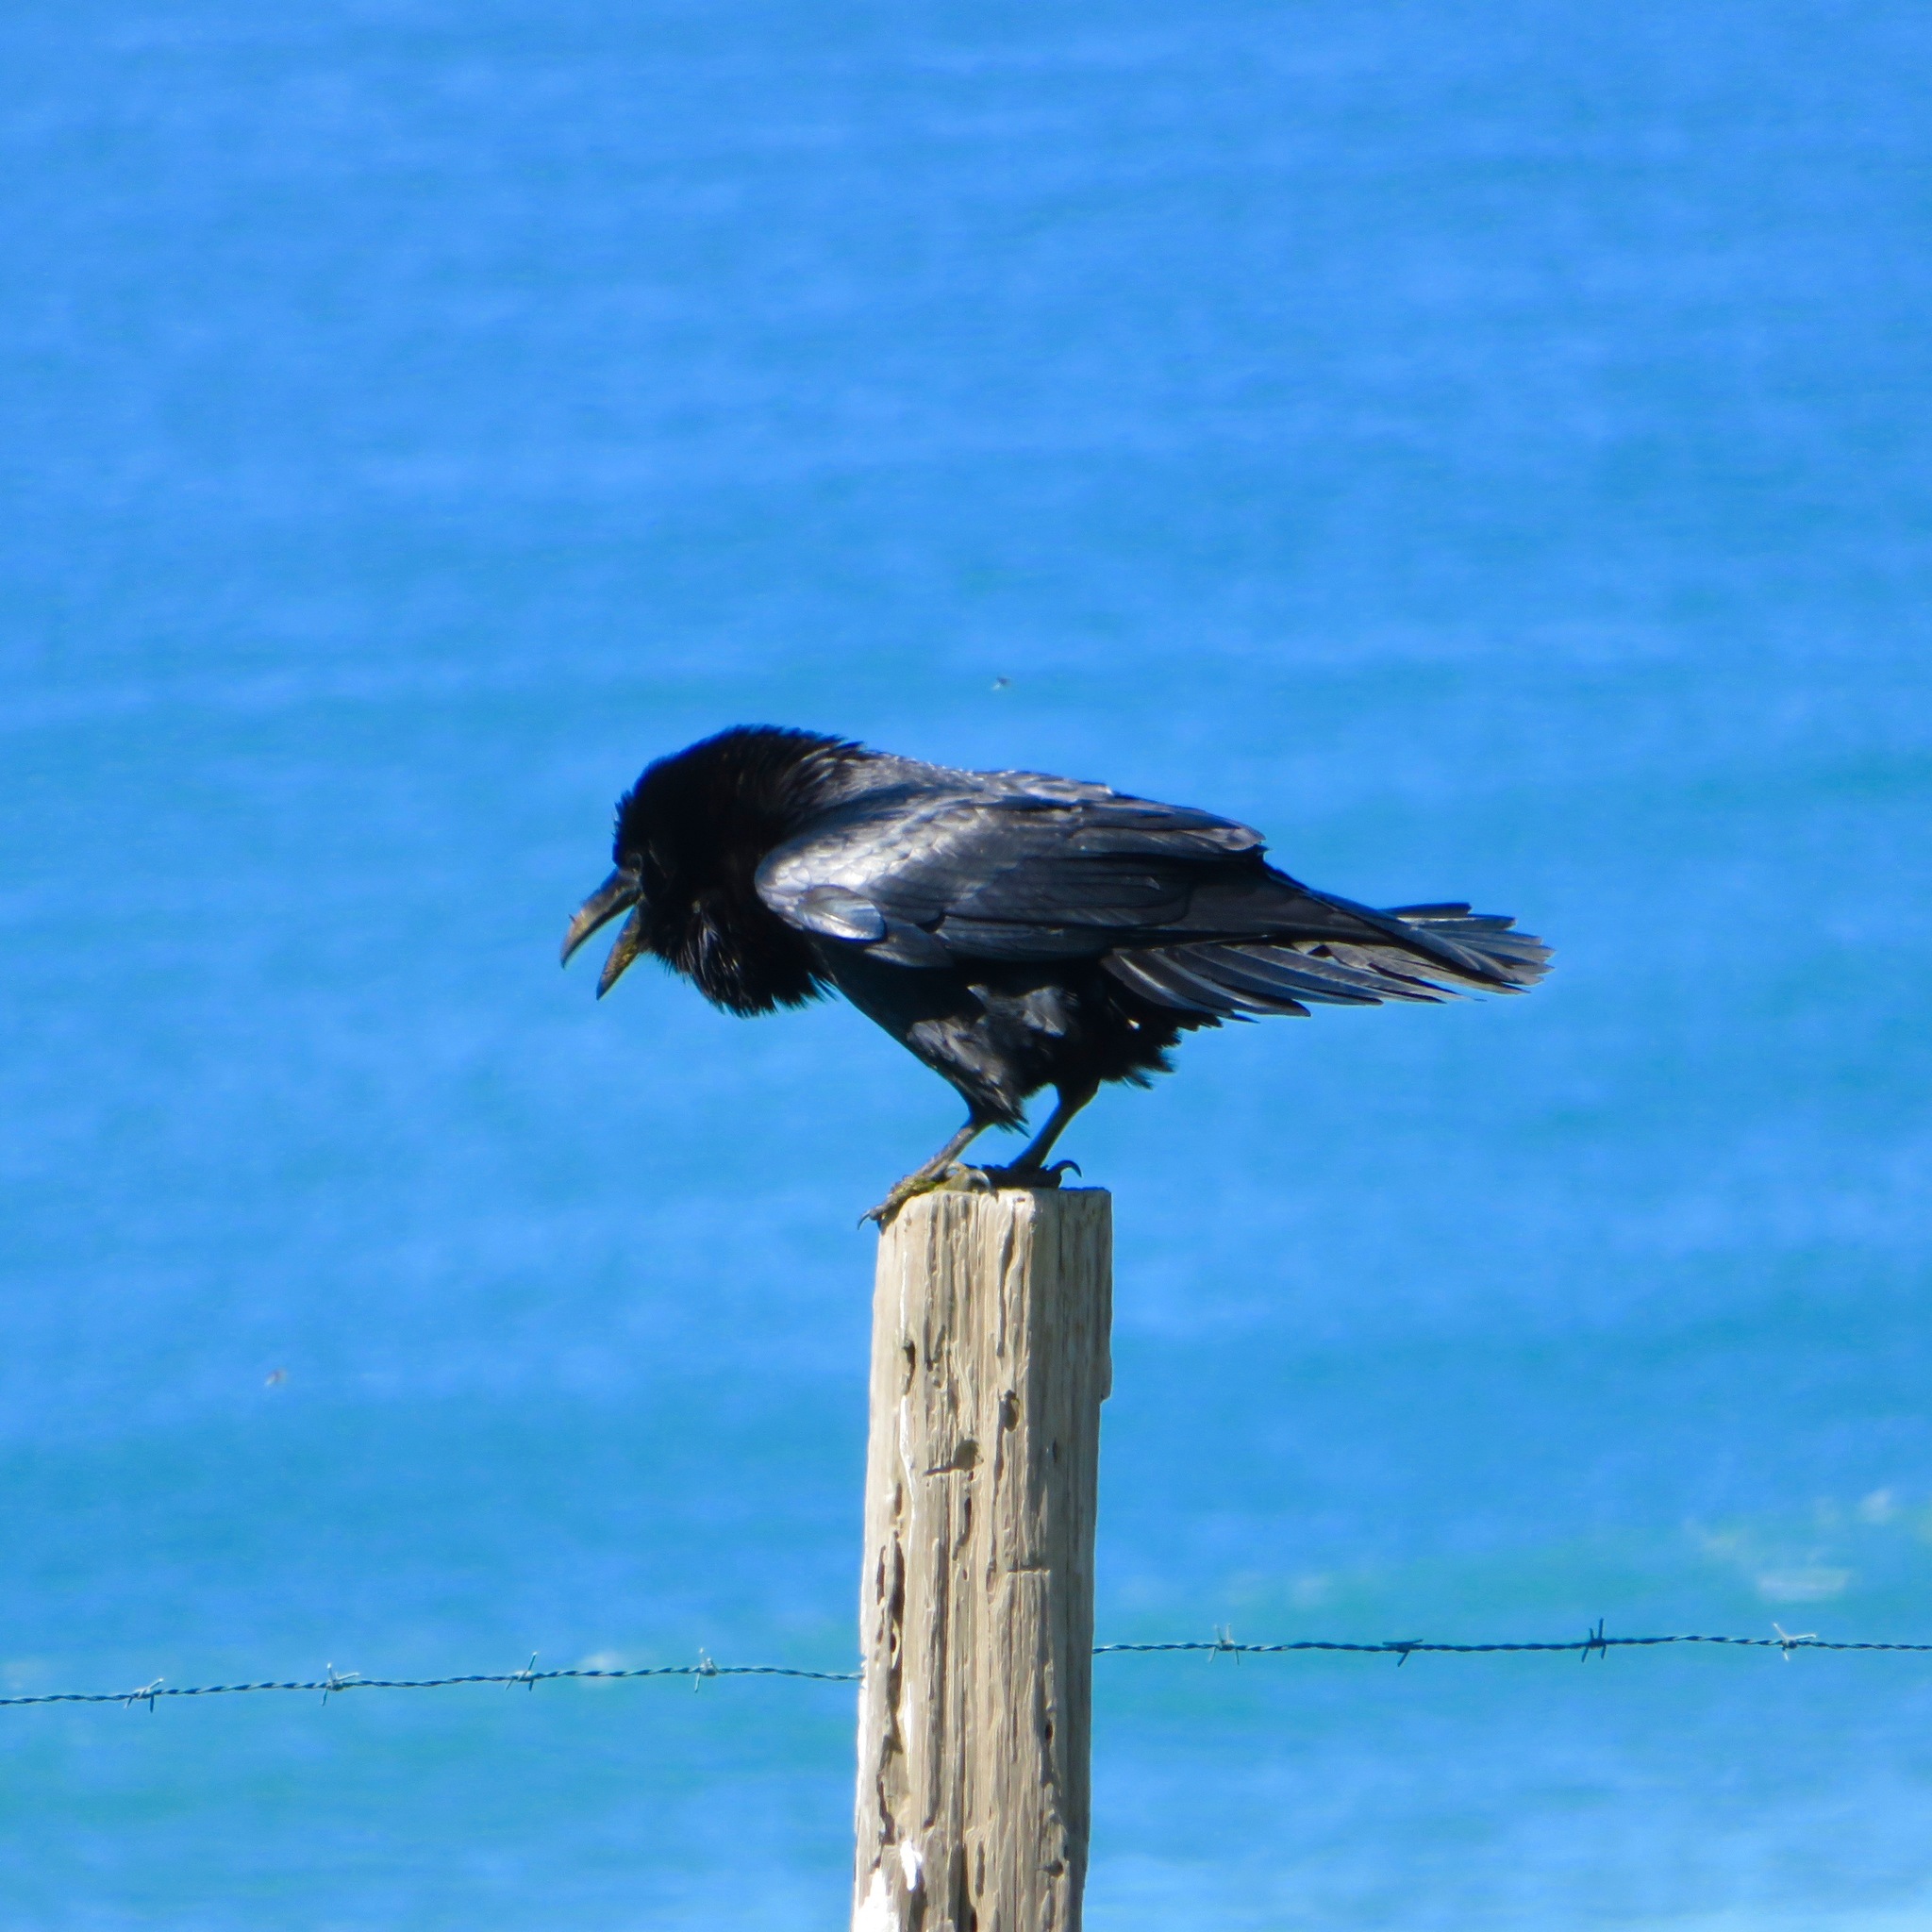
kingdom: Animalia
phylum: Chordata
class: Aves
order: Passeriformes
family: Corvidae
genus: Corvus
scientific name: Corvus corax
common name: Common raven
